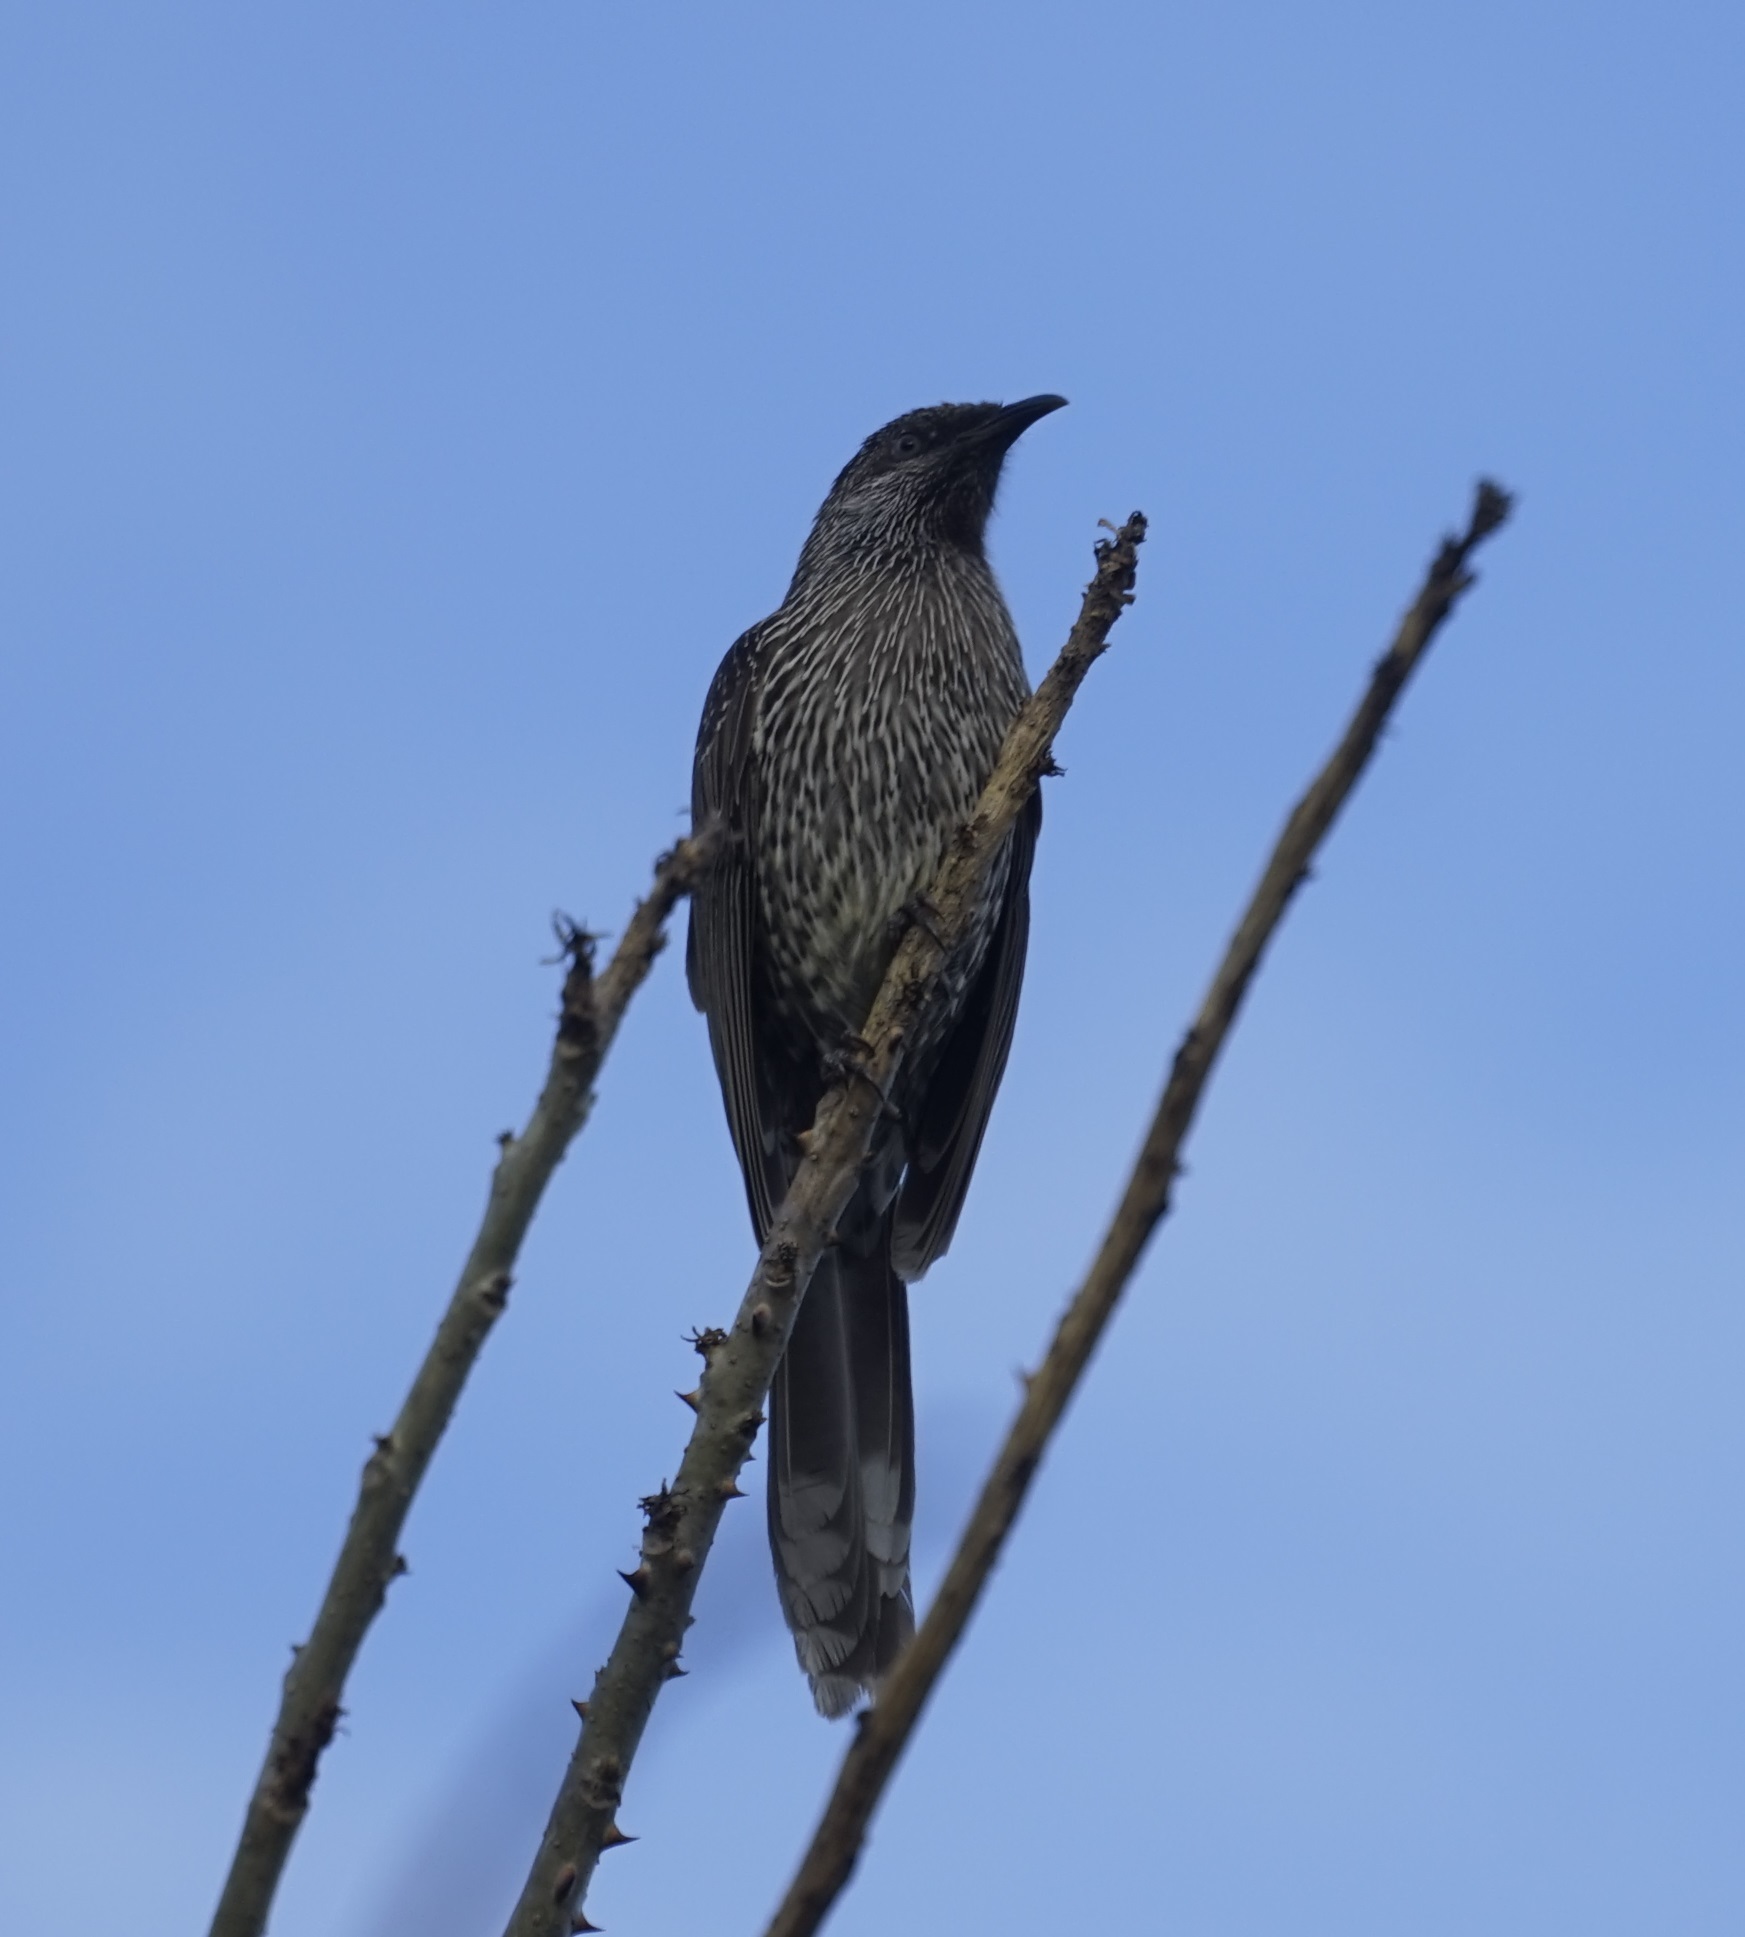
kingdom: Animalia
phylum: Chordata
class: Aves
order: Passeriformes
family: Meliphagidae
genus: Anthochaera
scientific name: Anthochaera chrysoptera
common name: Little wattlebird
